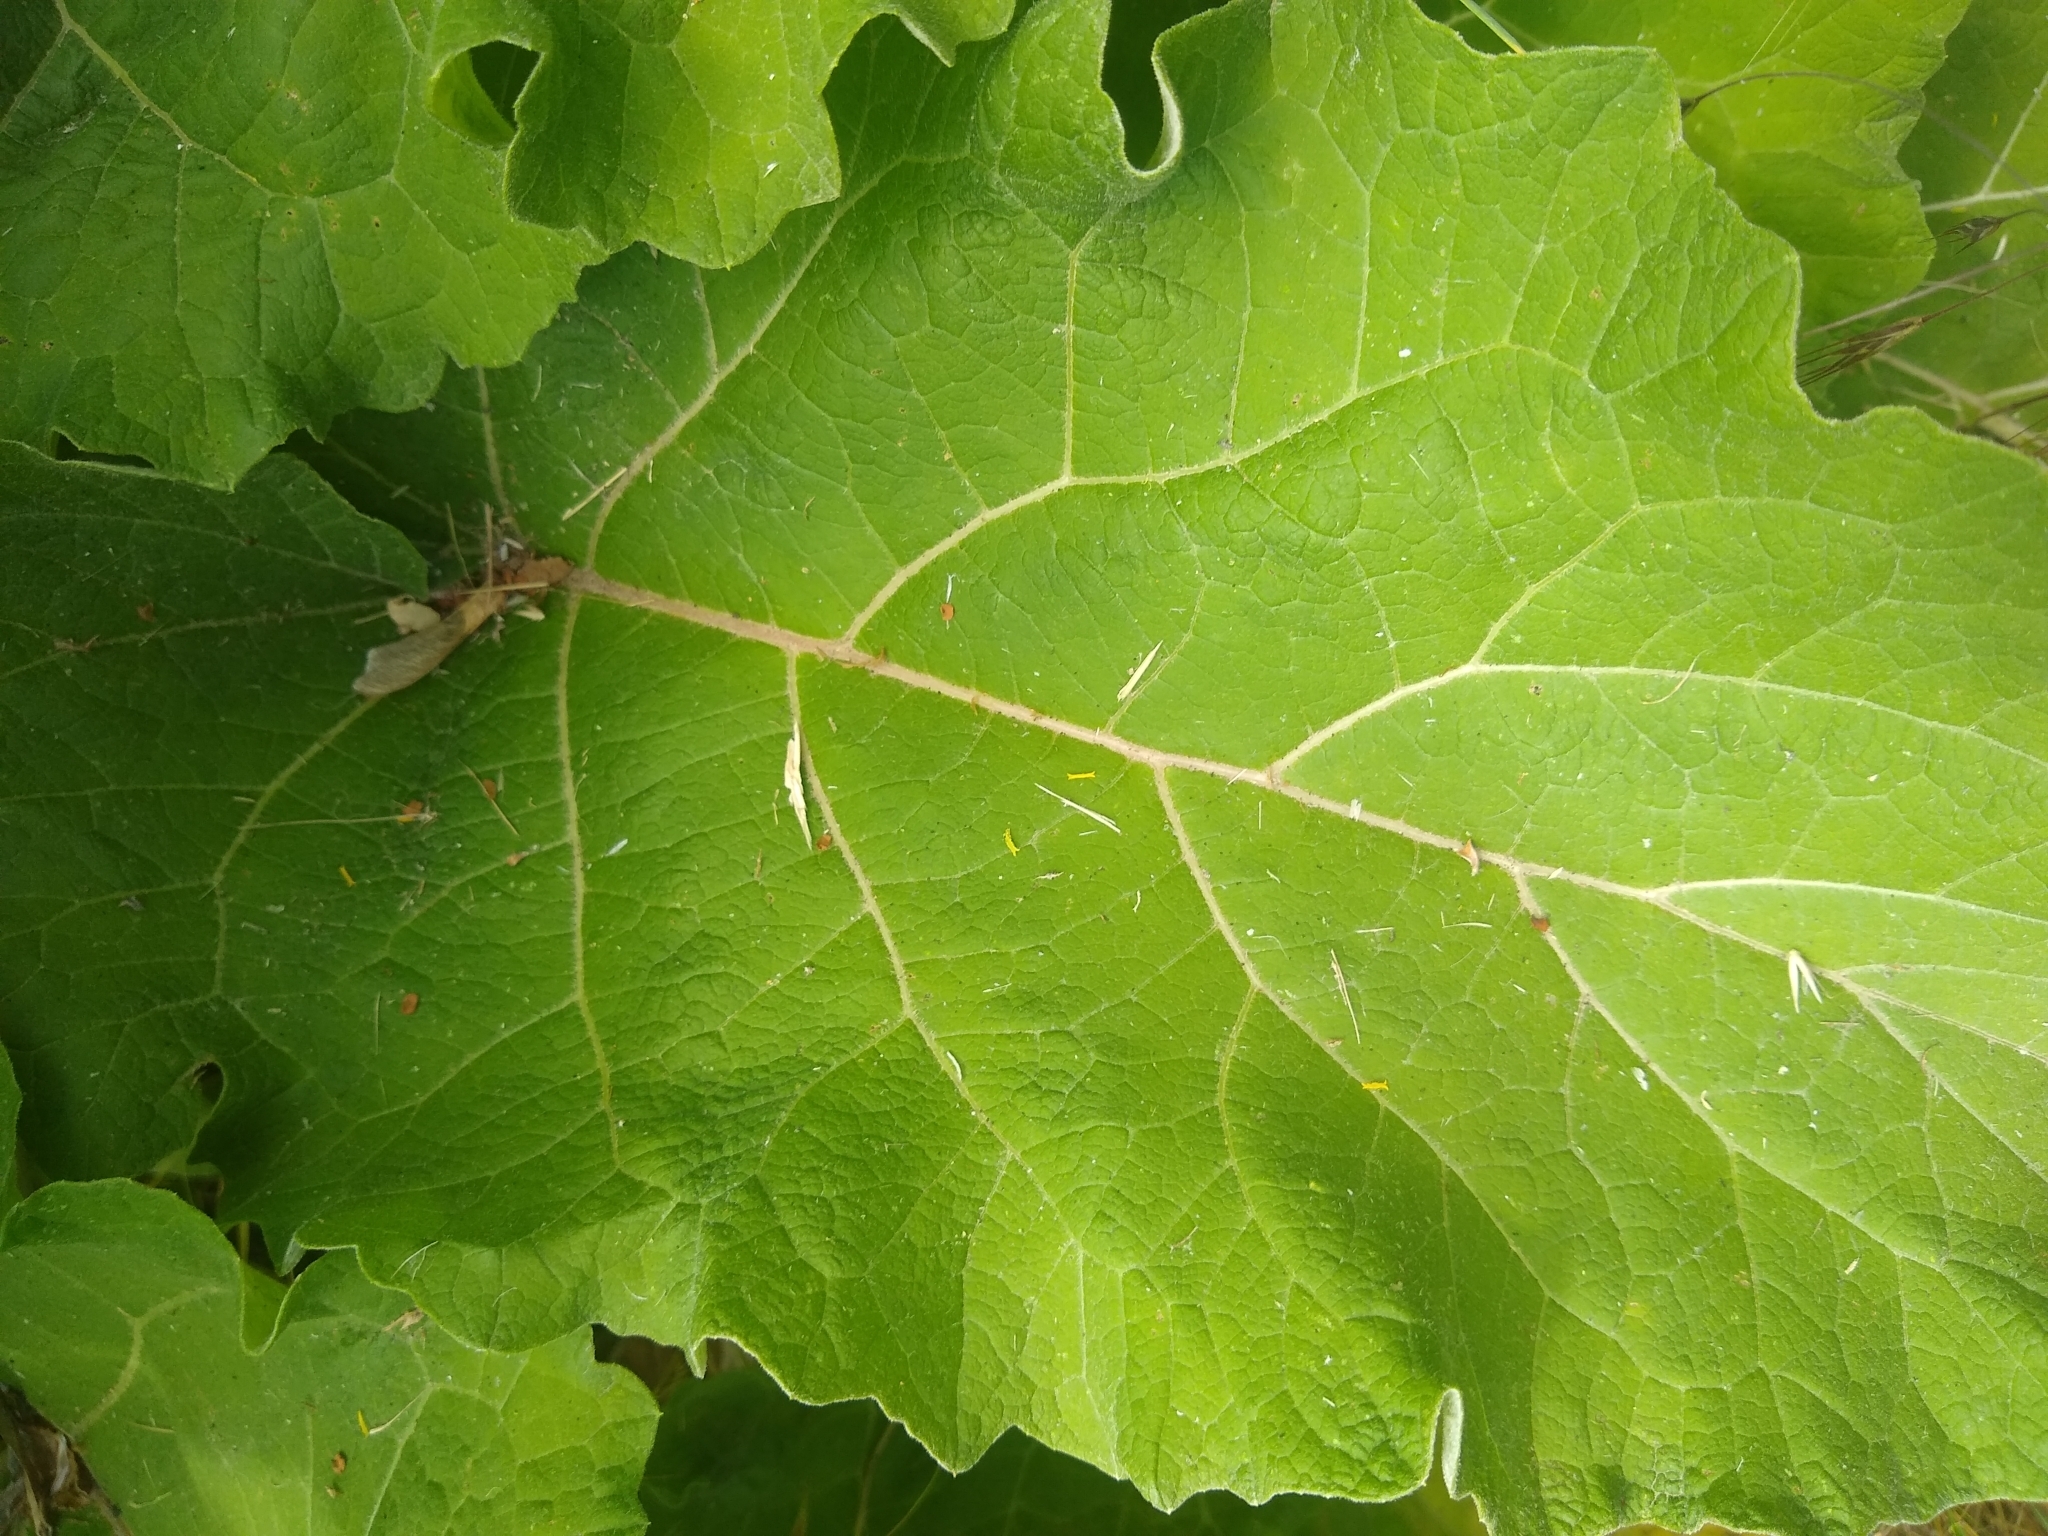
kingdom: Plantae
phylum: Tracheophyta
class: Magnoliopsida
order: Asterales
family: Asteraceae
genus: Arctium
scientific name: Arctium
